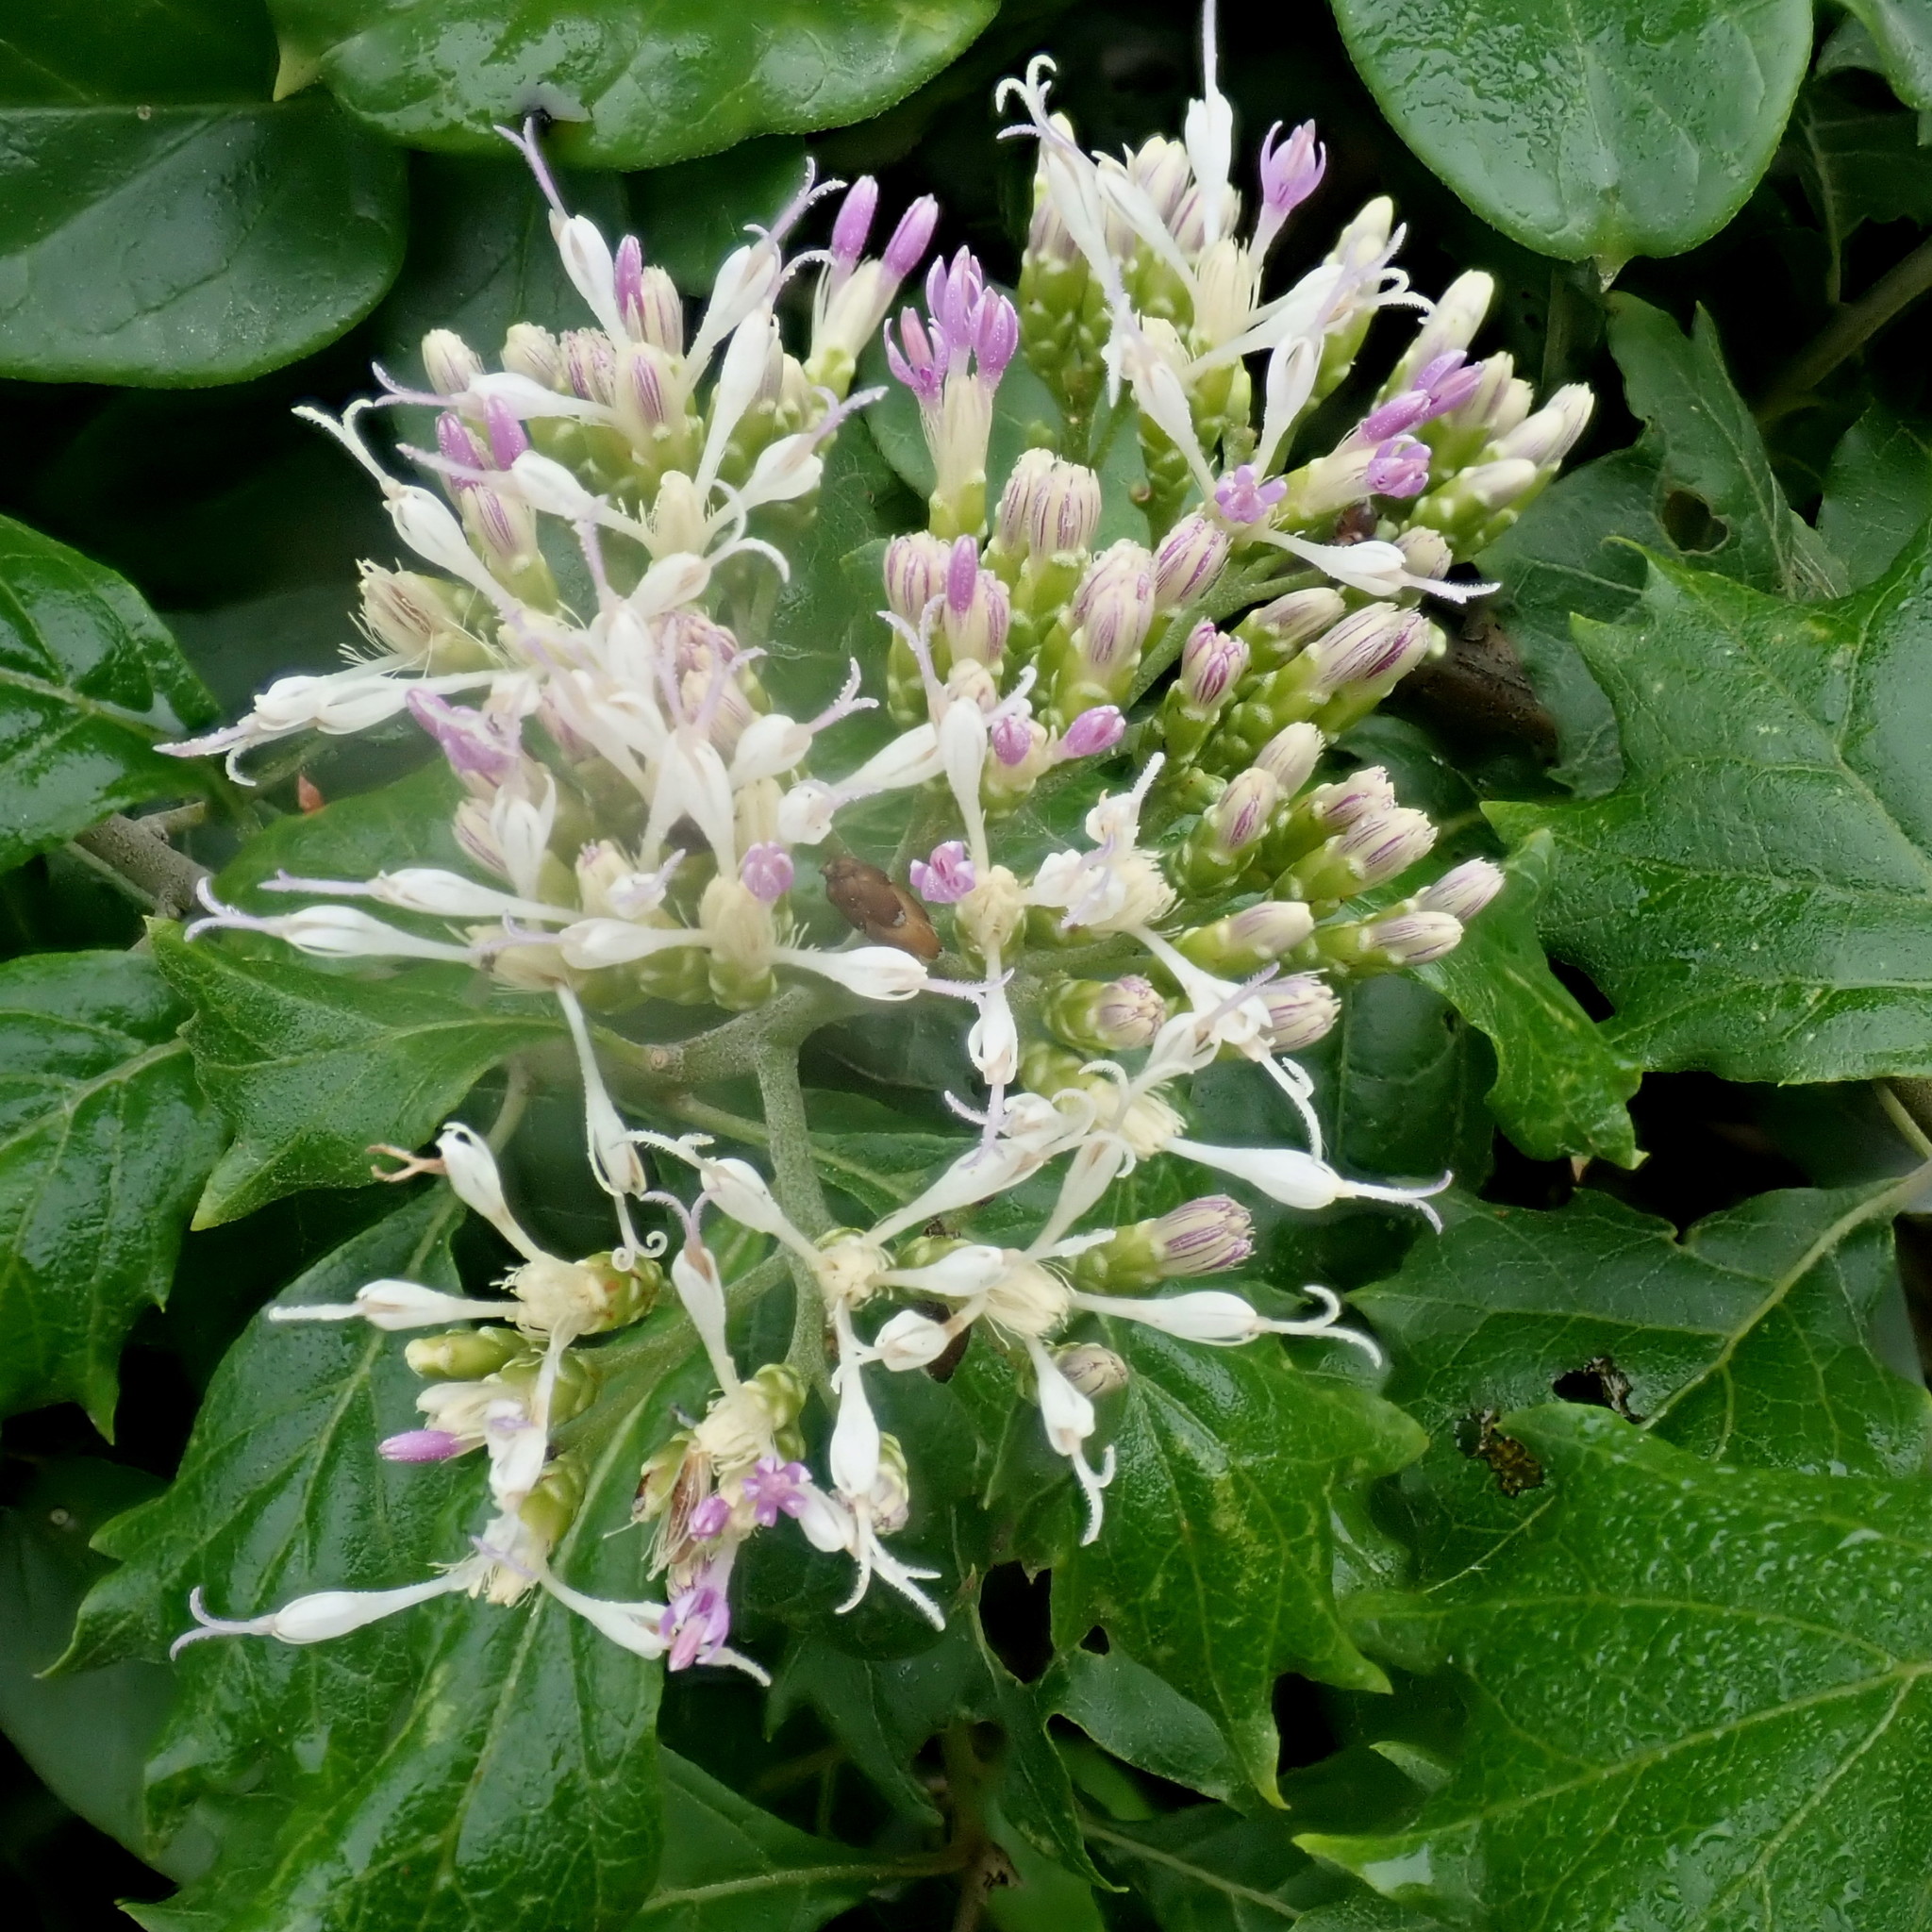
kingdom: Plantae
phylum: Tracheophyta
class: Magnoliopsida
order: Asterales
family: Asteraceae
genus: Gymnanthemum
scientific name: Gymnanthemum capense
